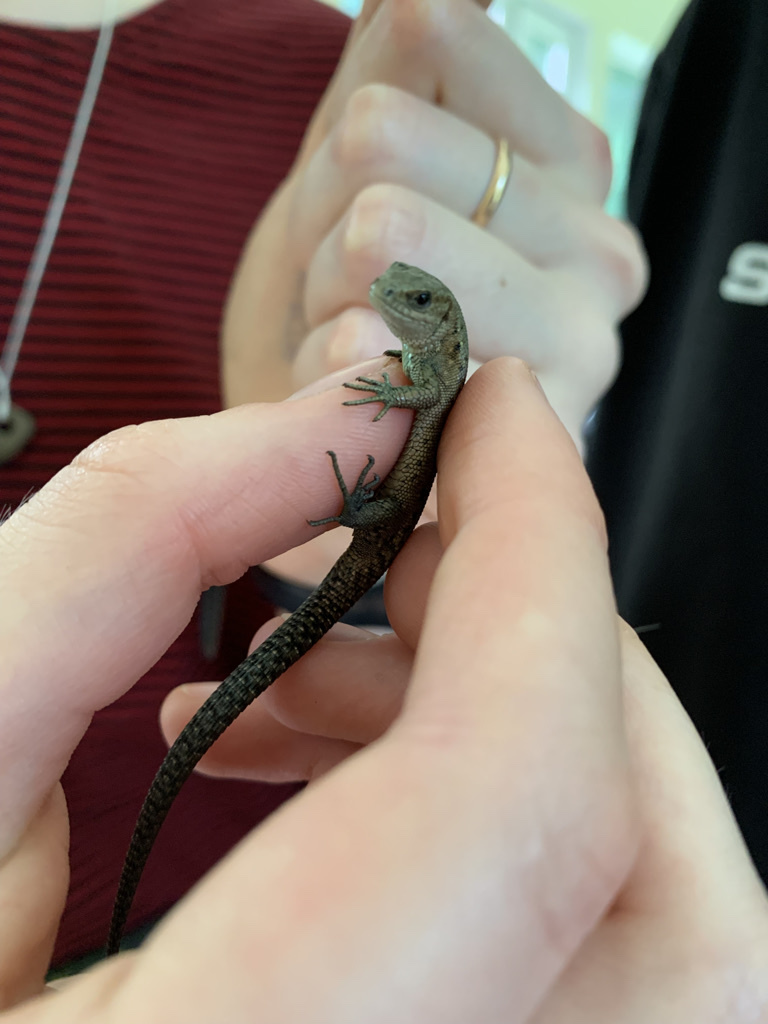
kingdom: Animalia
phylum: Chordata
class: Squamata
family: Lacertidae
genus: Zootoca
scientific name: Zootoca vivipara
